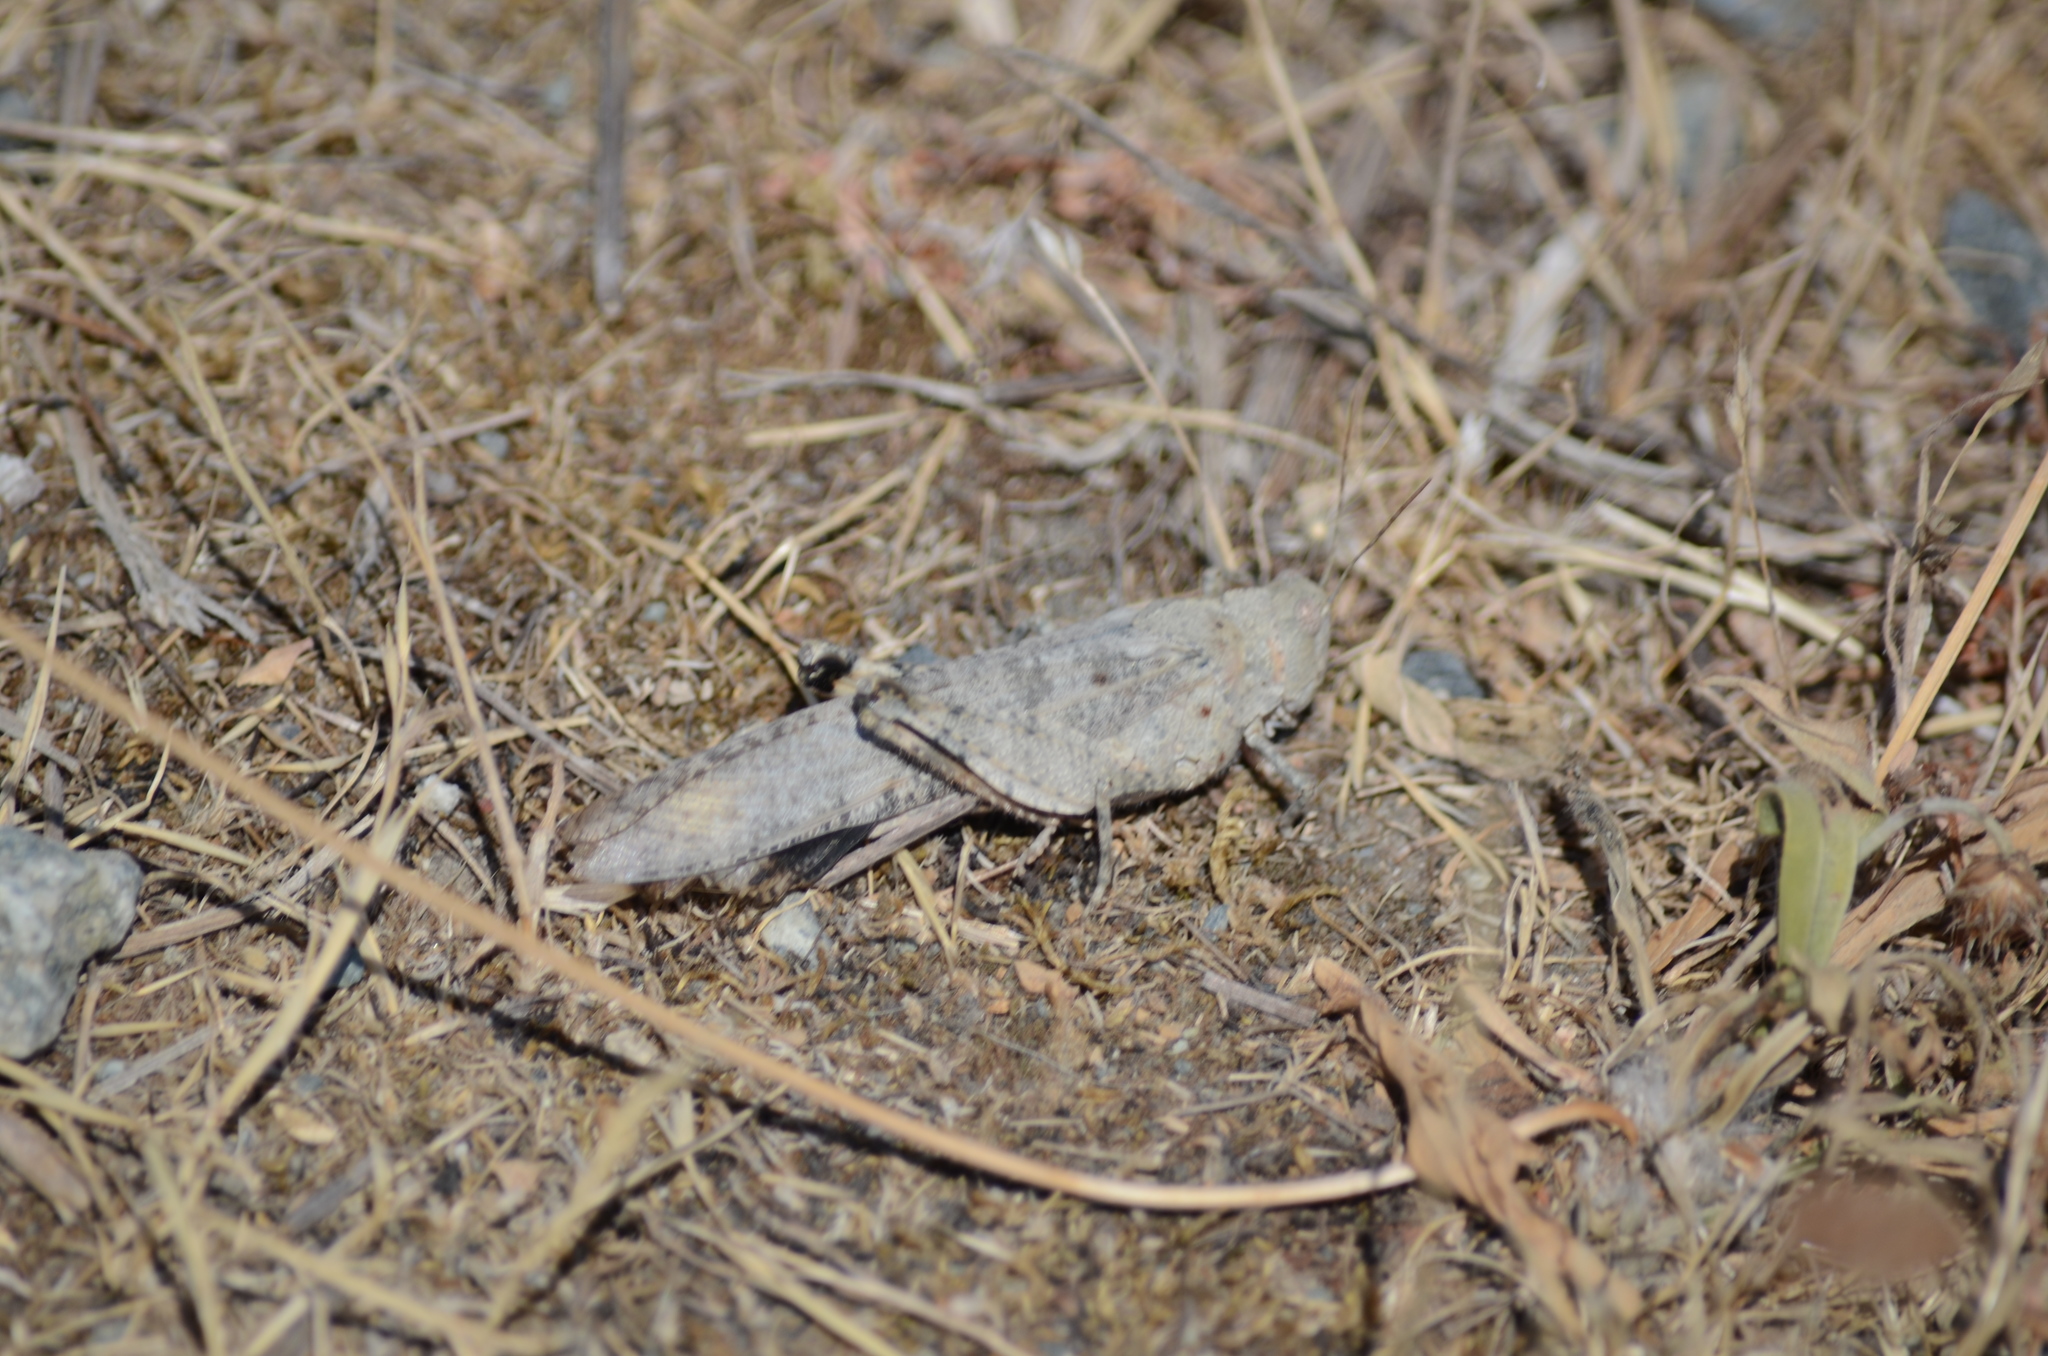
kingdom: Animalia
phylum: Arthropoda
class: Insecta
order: Orthoptera
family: Acrididae
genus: Dissosteira
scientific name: Dissosteira carolina
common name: Carolina grasshopper
